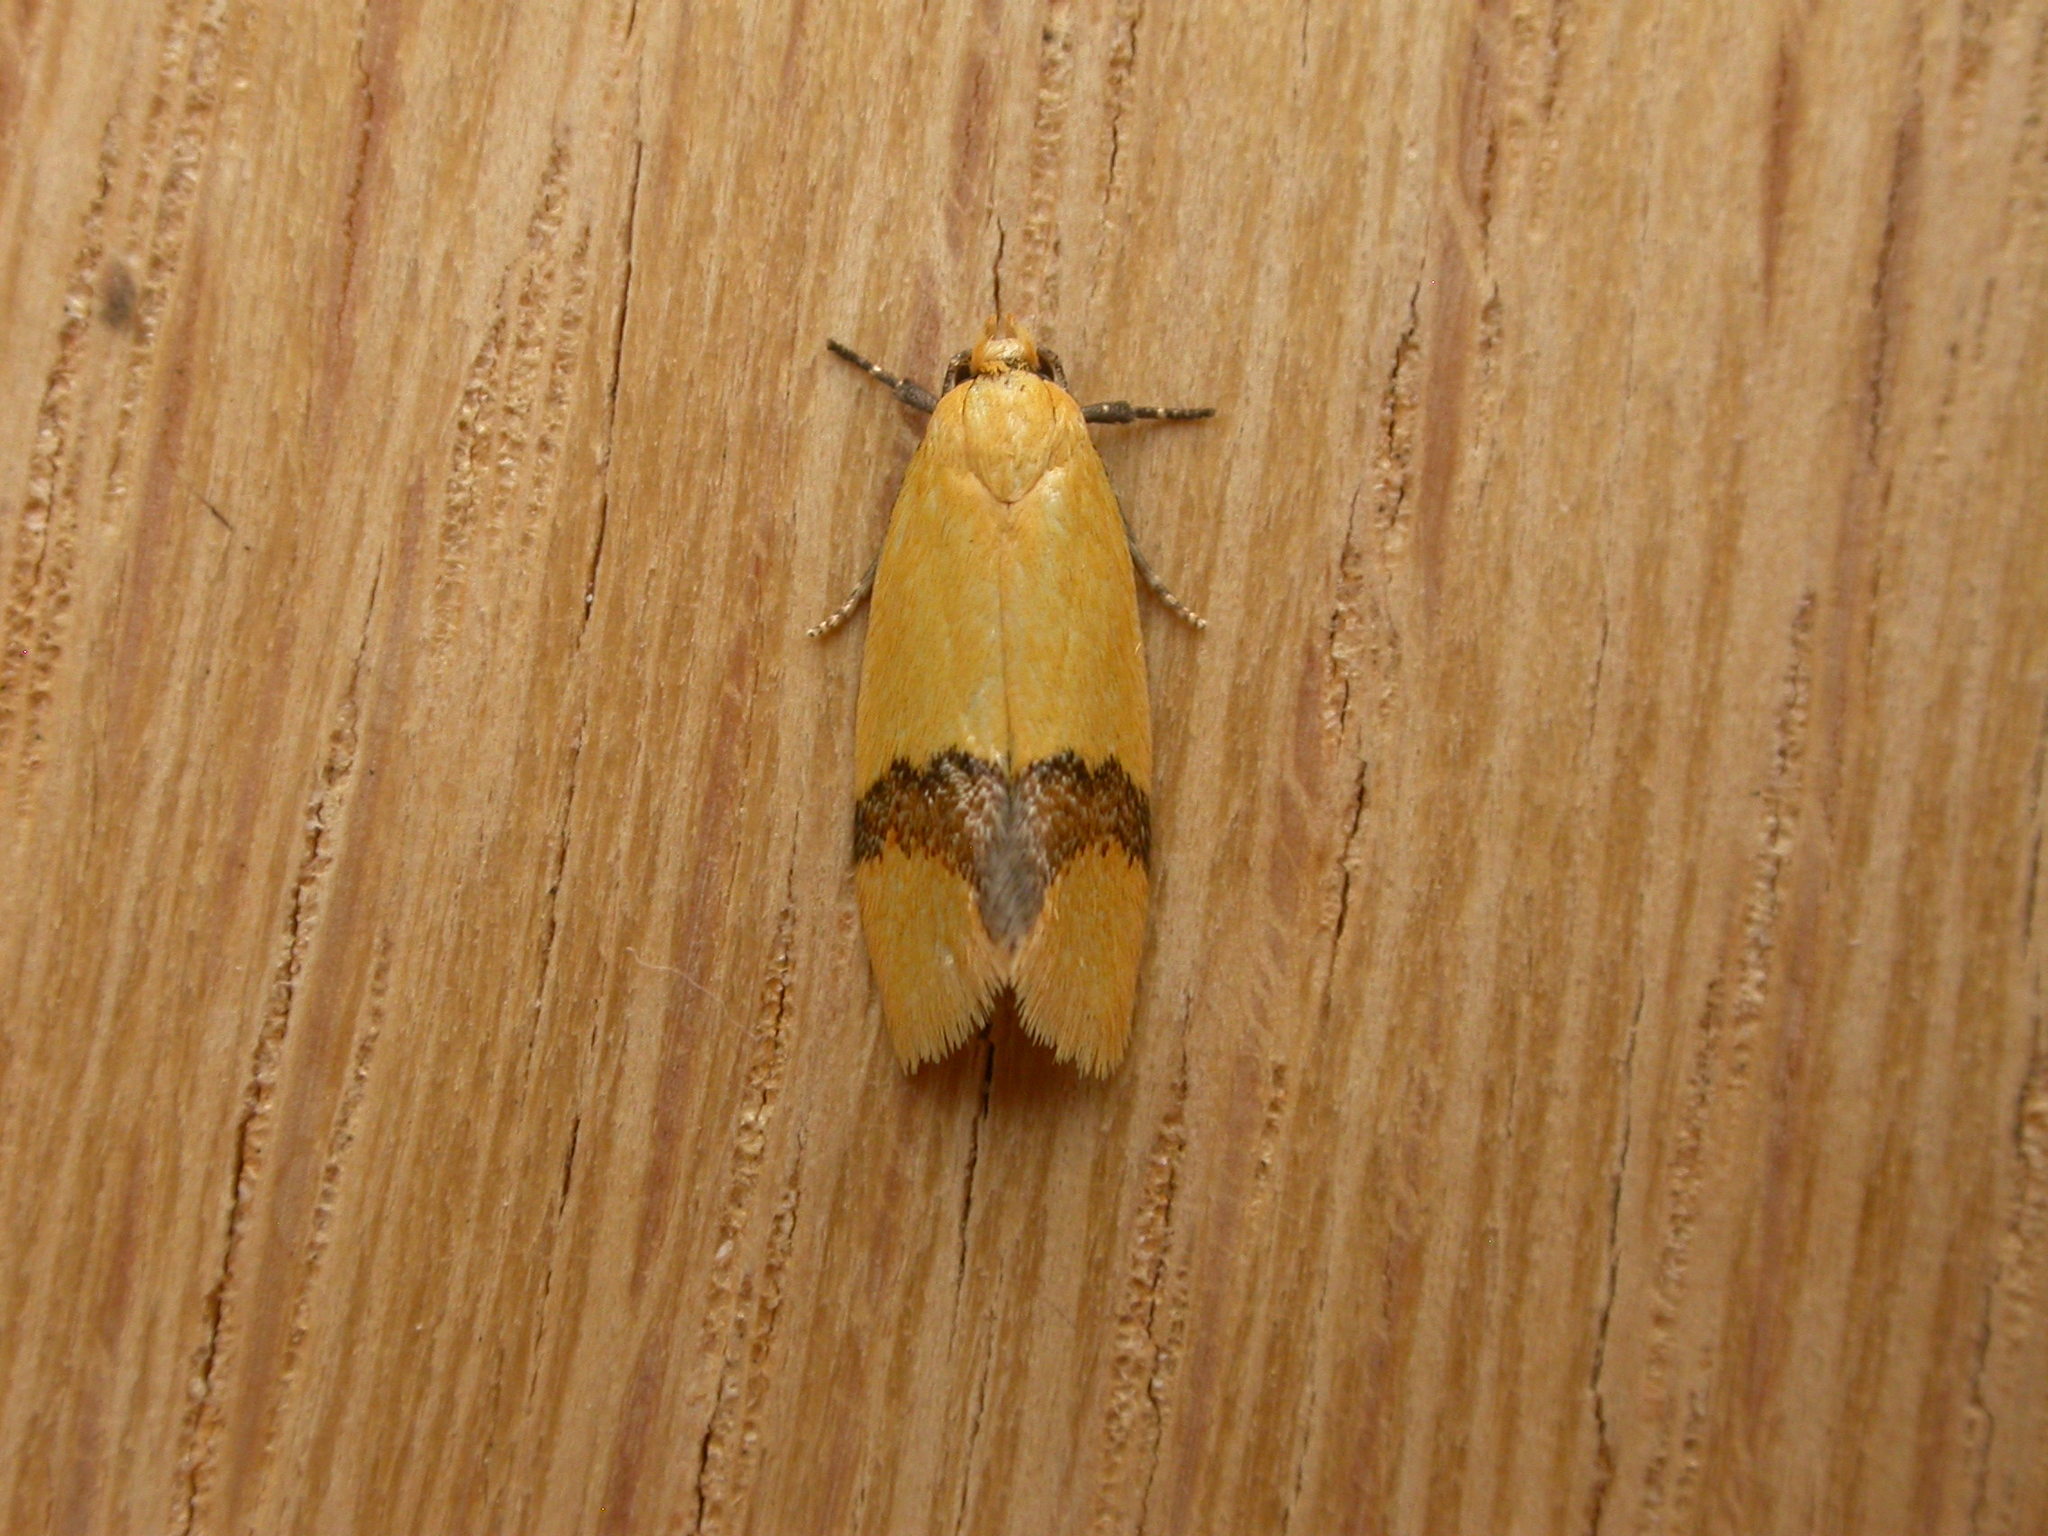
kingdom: Animalia
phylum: Arthropoda
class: Insecta
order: Lepidoptera
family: Oecophoridae
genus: Coesyra
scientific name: Coesyra phaeozona
